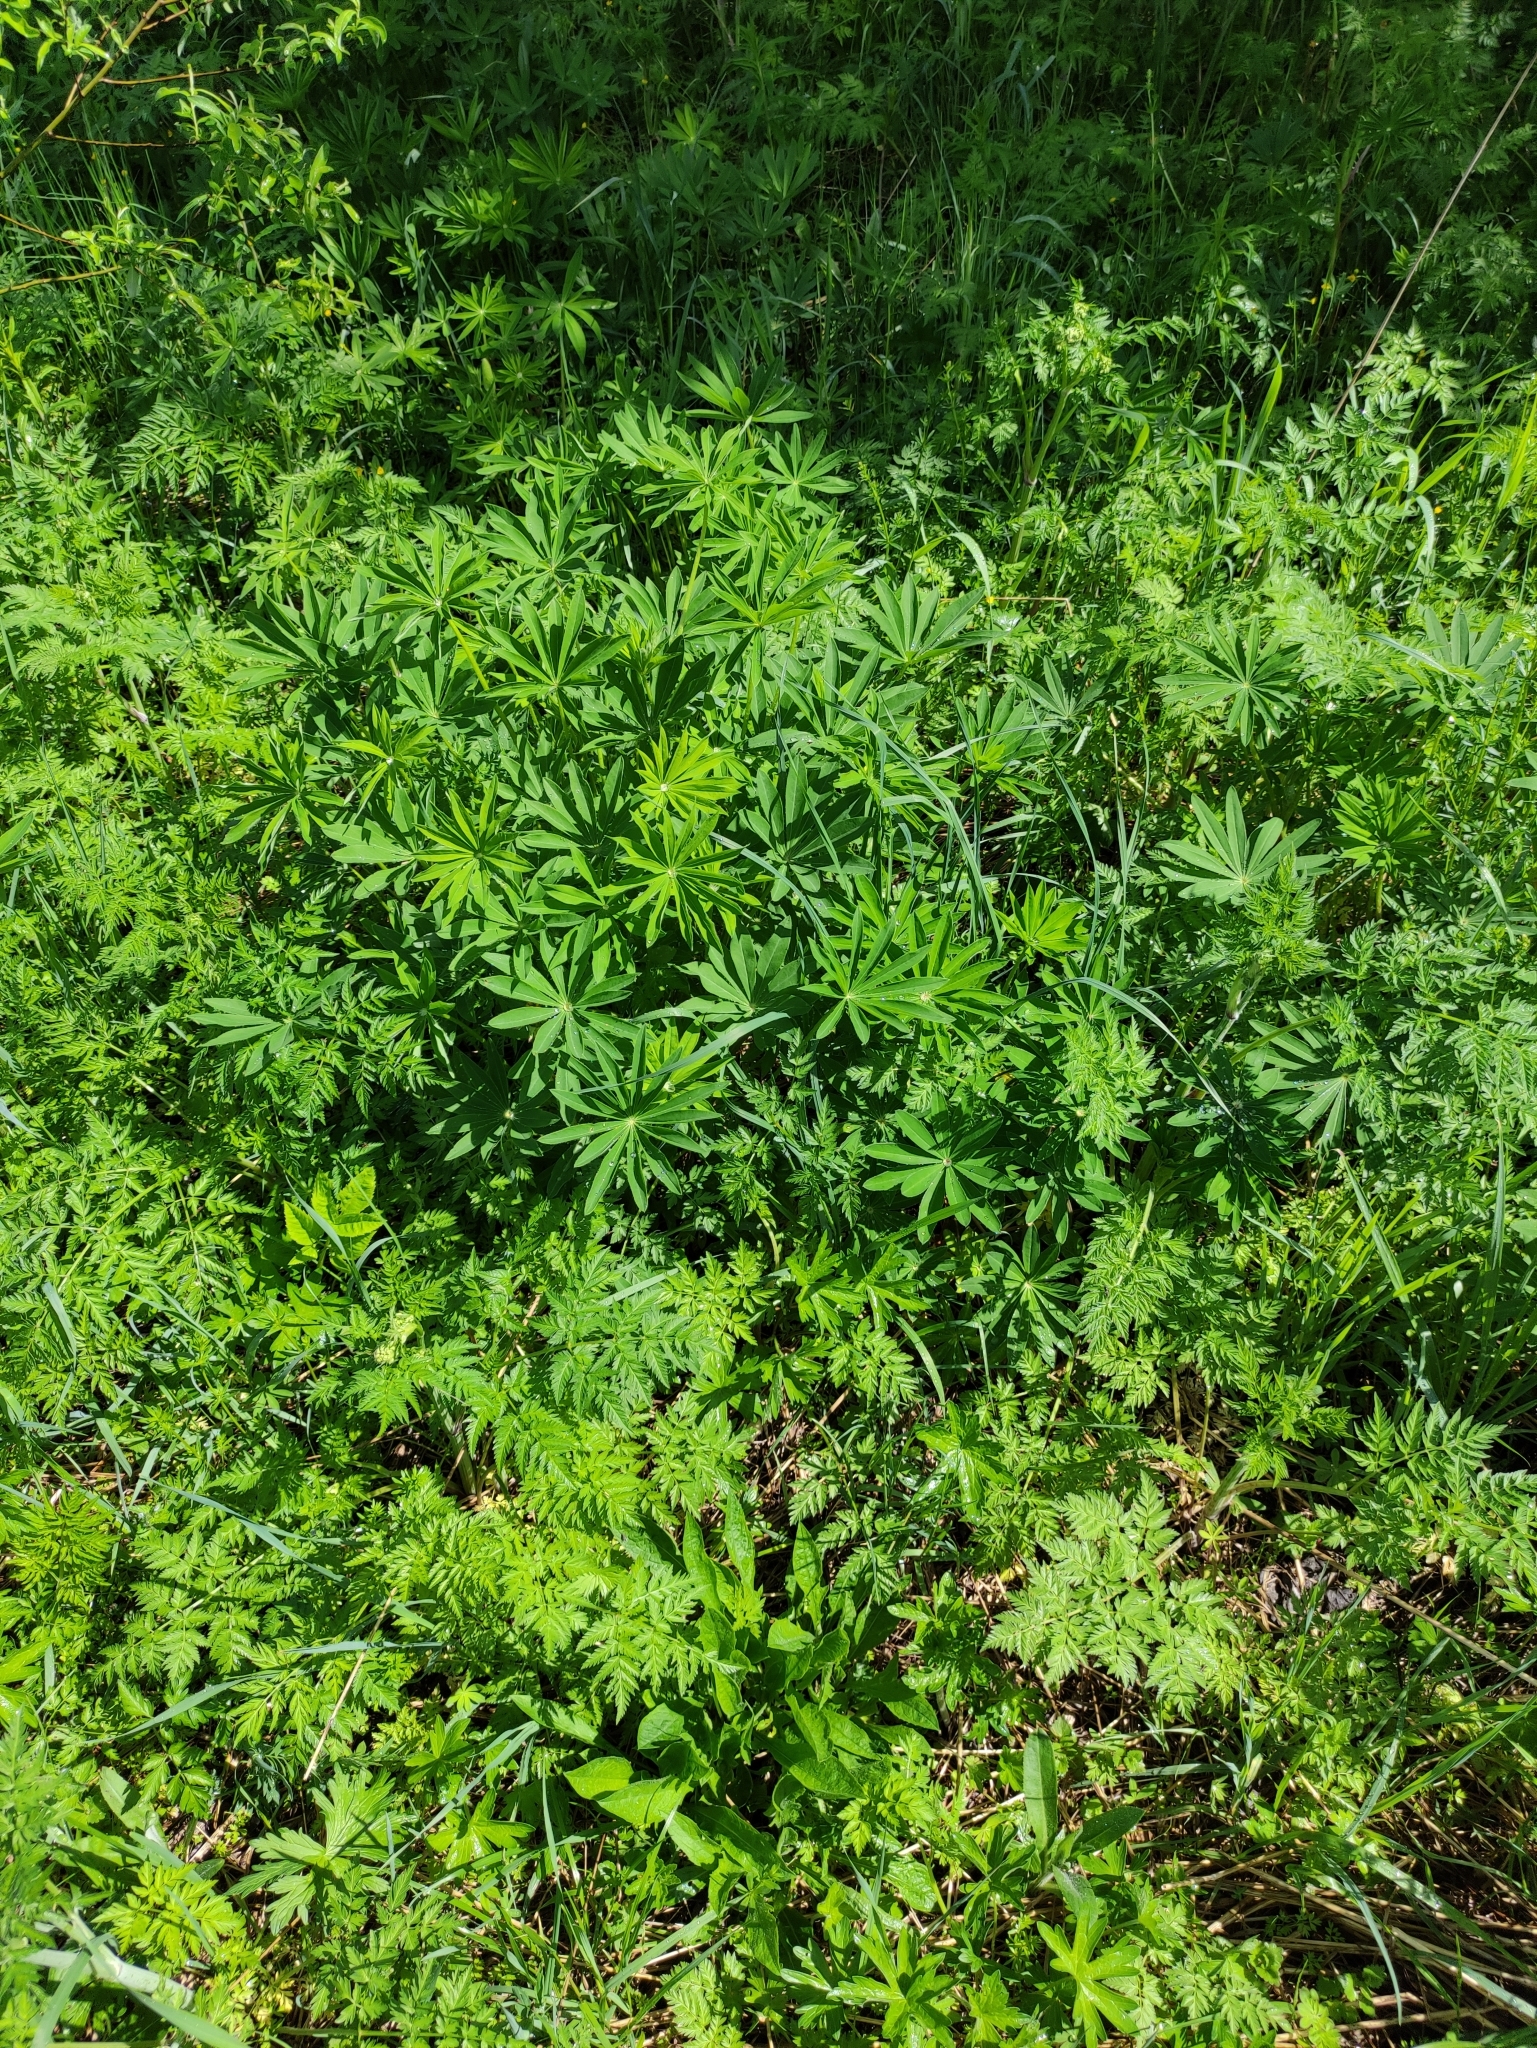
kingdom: Plantae
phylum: Tracheophyta
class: Magnoliopsida
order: Fabales
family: Fabaceae
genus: Lupinus
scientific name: Lupinus polyphyllus
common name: Garden lupin
